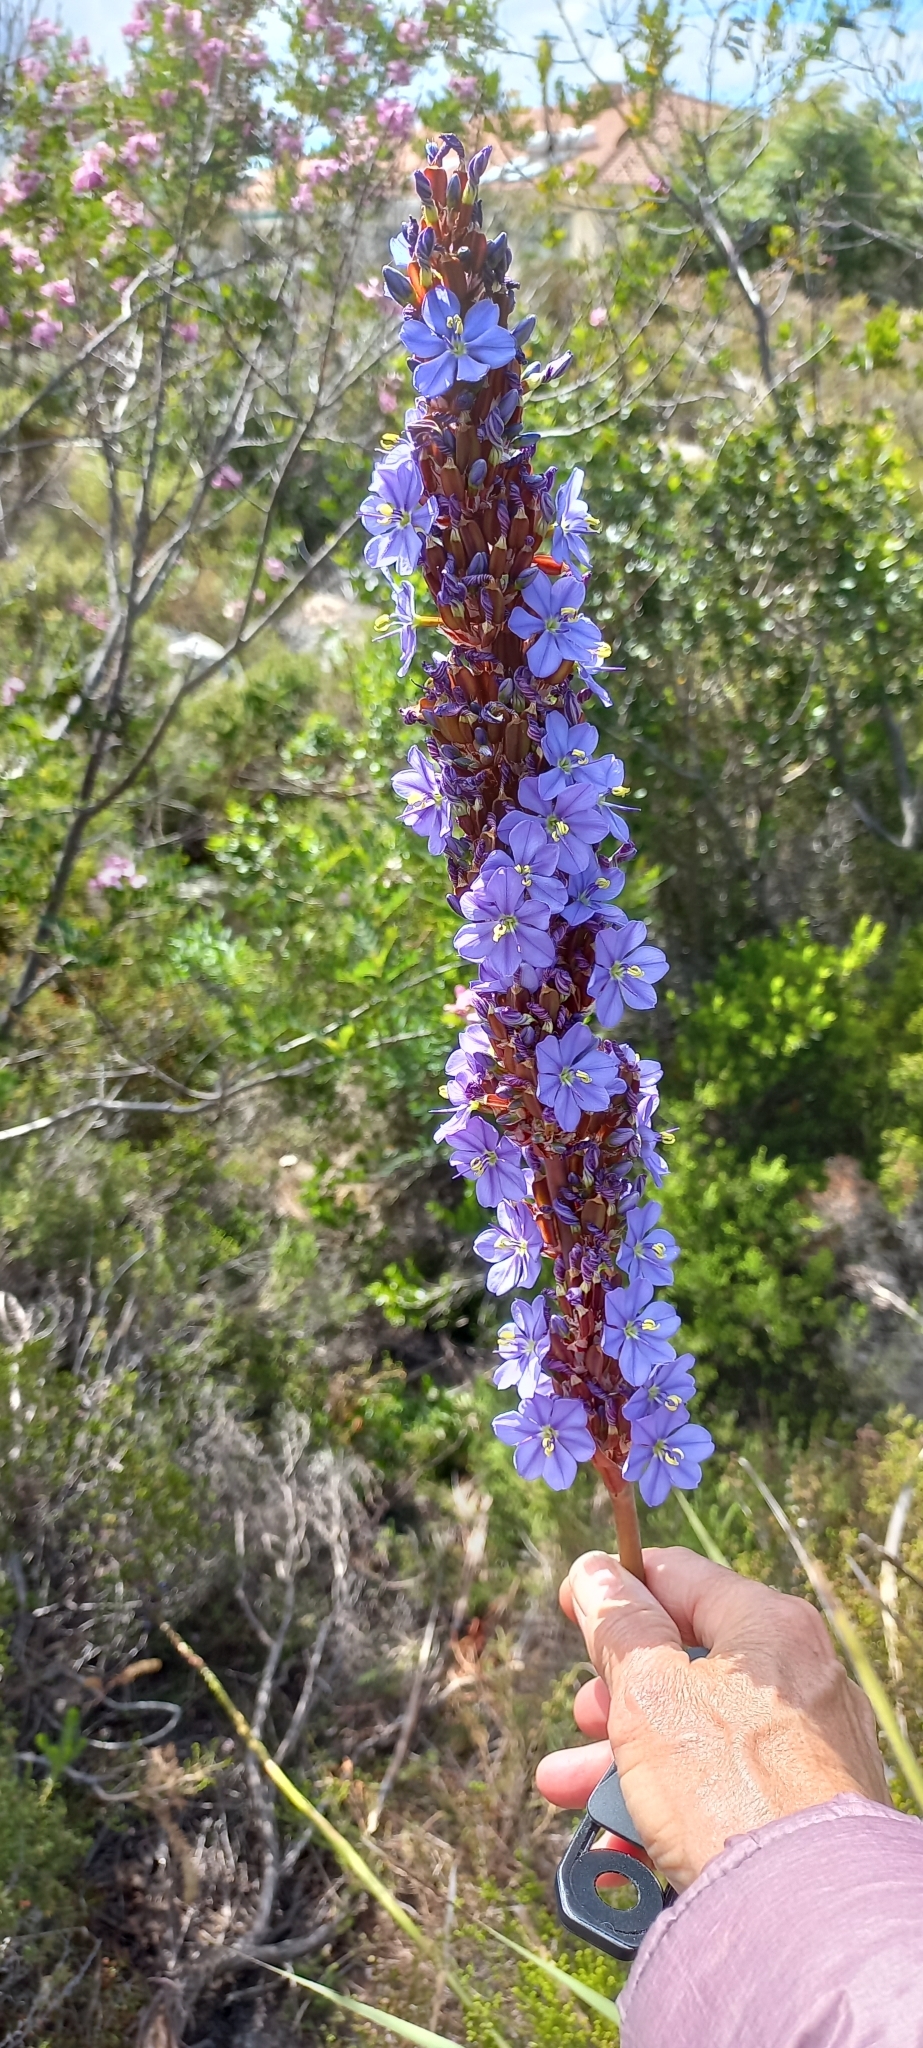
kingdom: Plantae
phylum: Tracheophyta
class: Liliopsida
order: Asparagales
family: Iridaceae
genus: Aristea
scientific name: Aristea capitata
